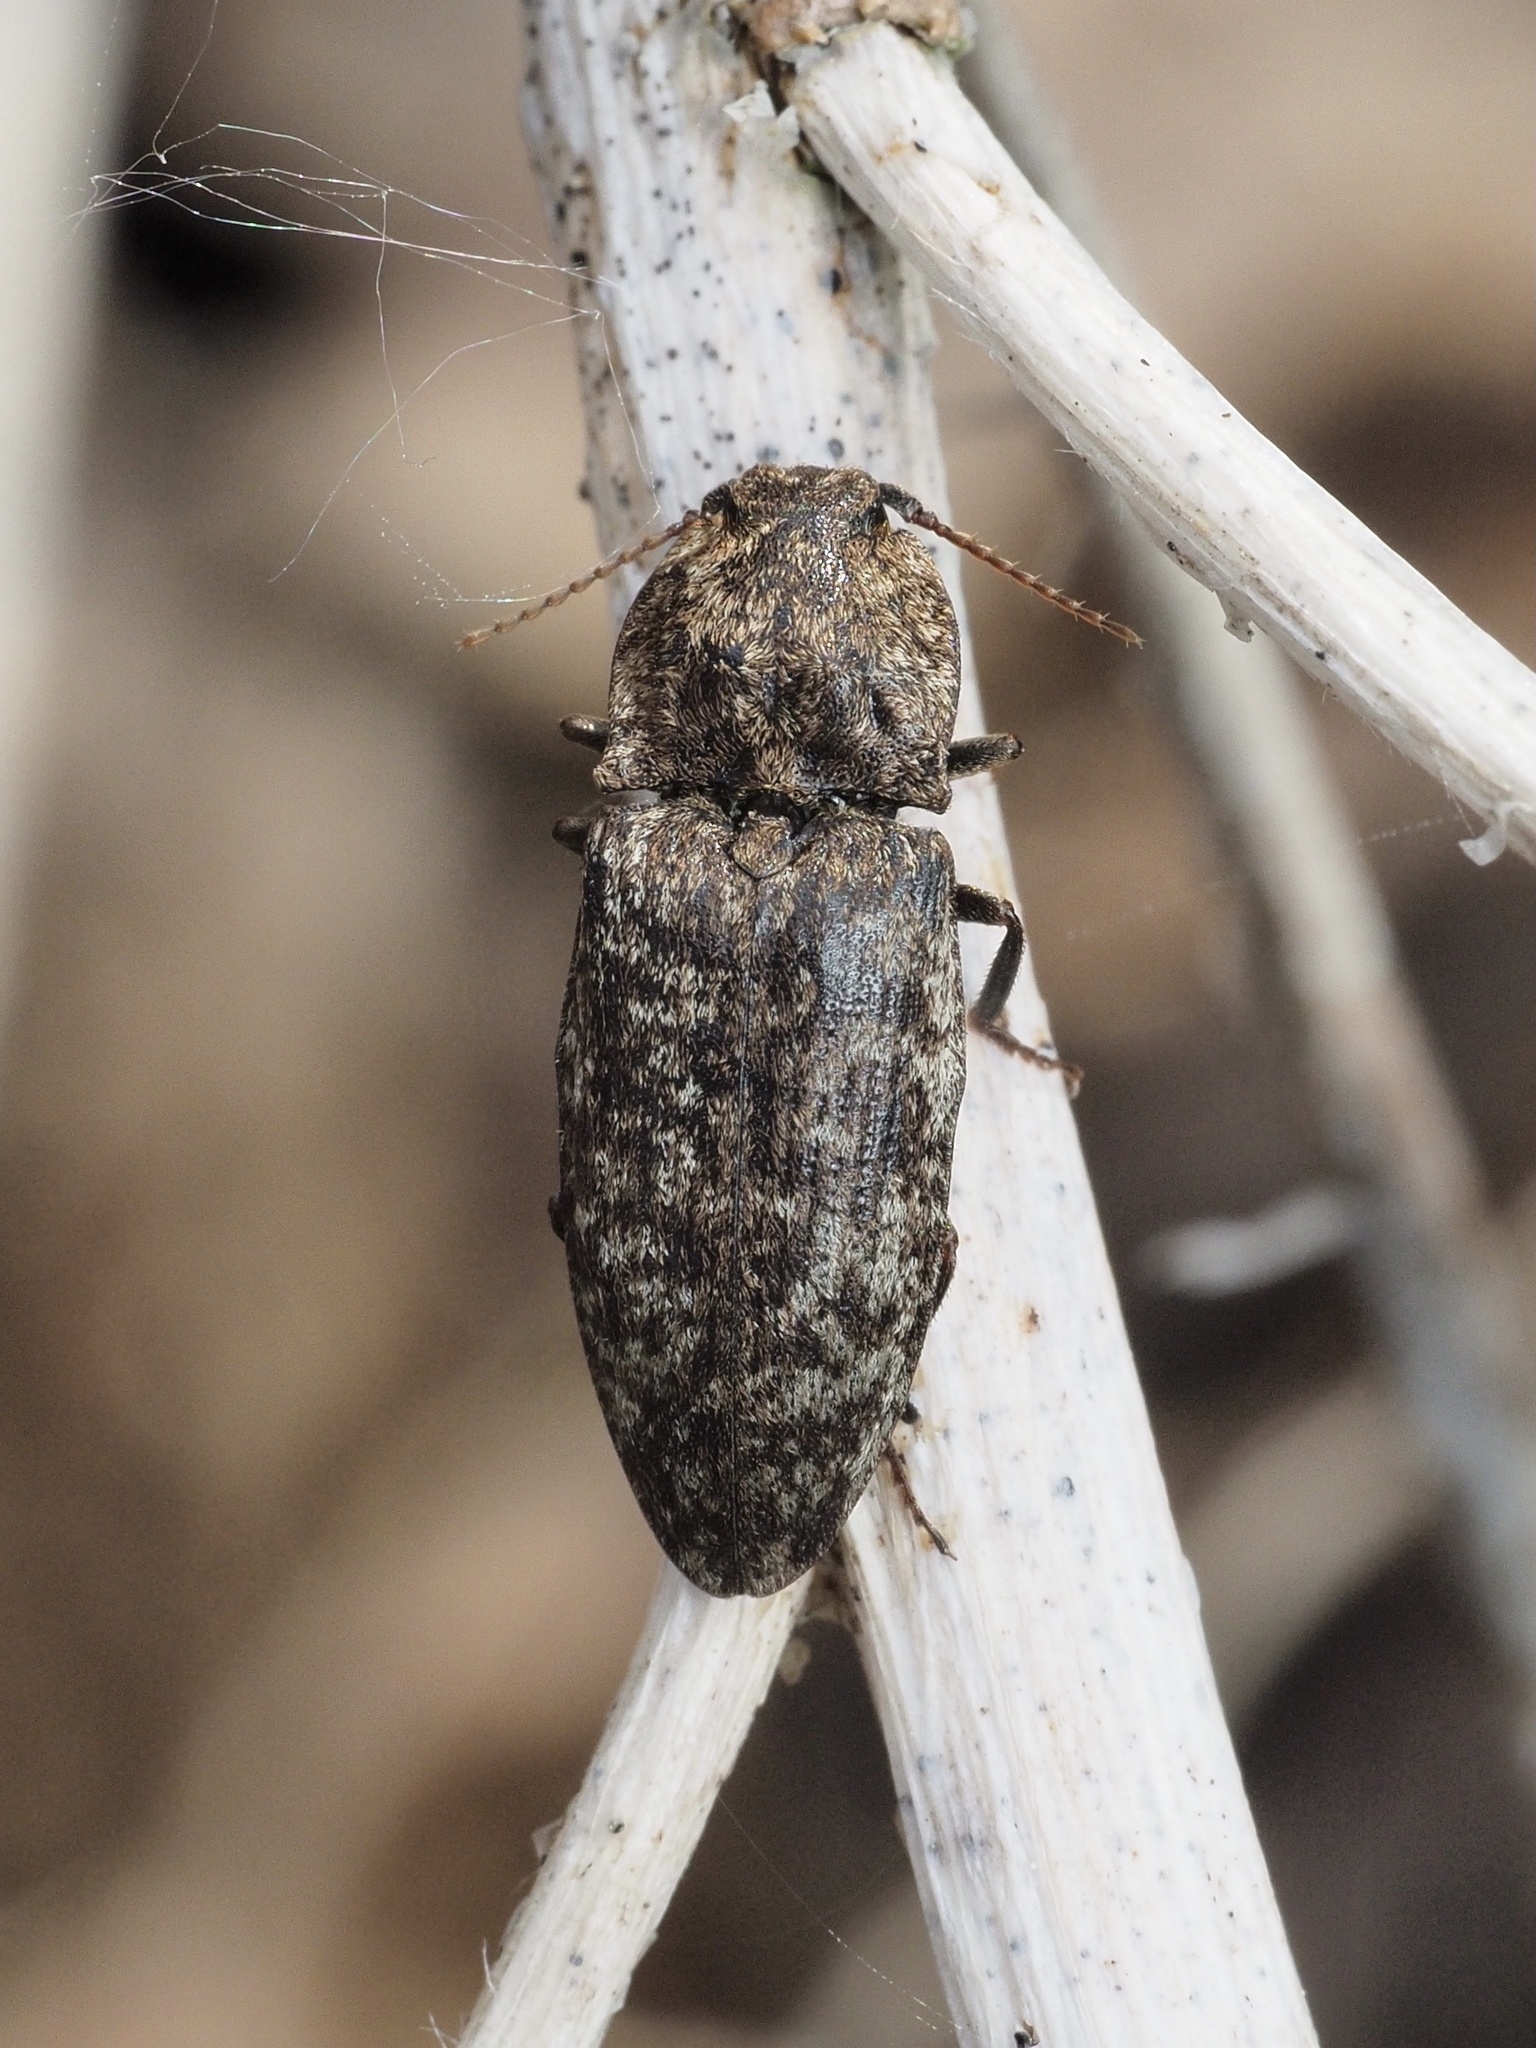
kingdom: Animalia
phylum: Arthropoda
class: Insecta
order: Coleoptera
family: Elateridae
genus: Agrypnus
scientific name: Agrypnus murinus
